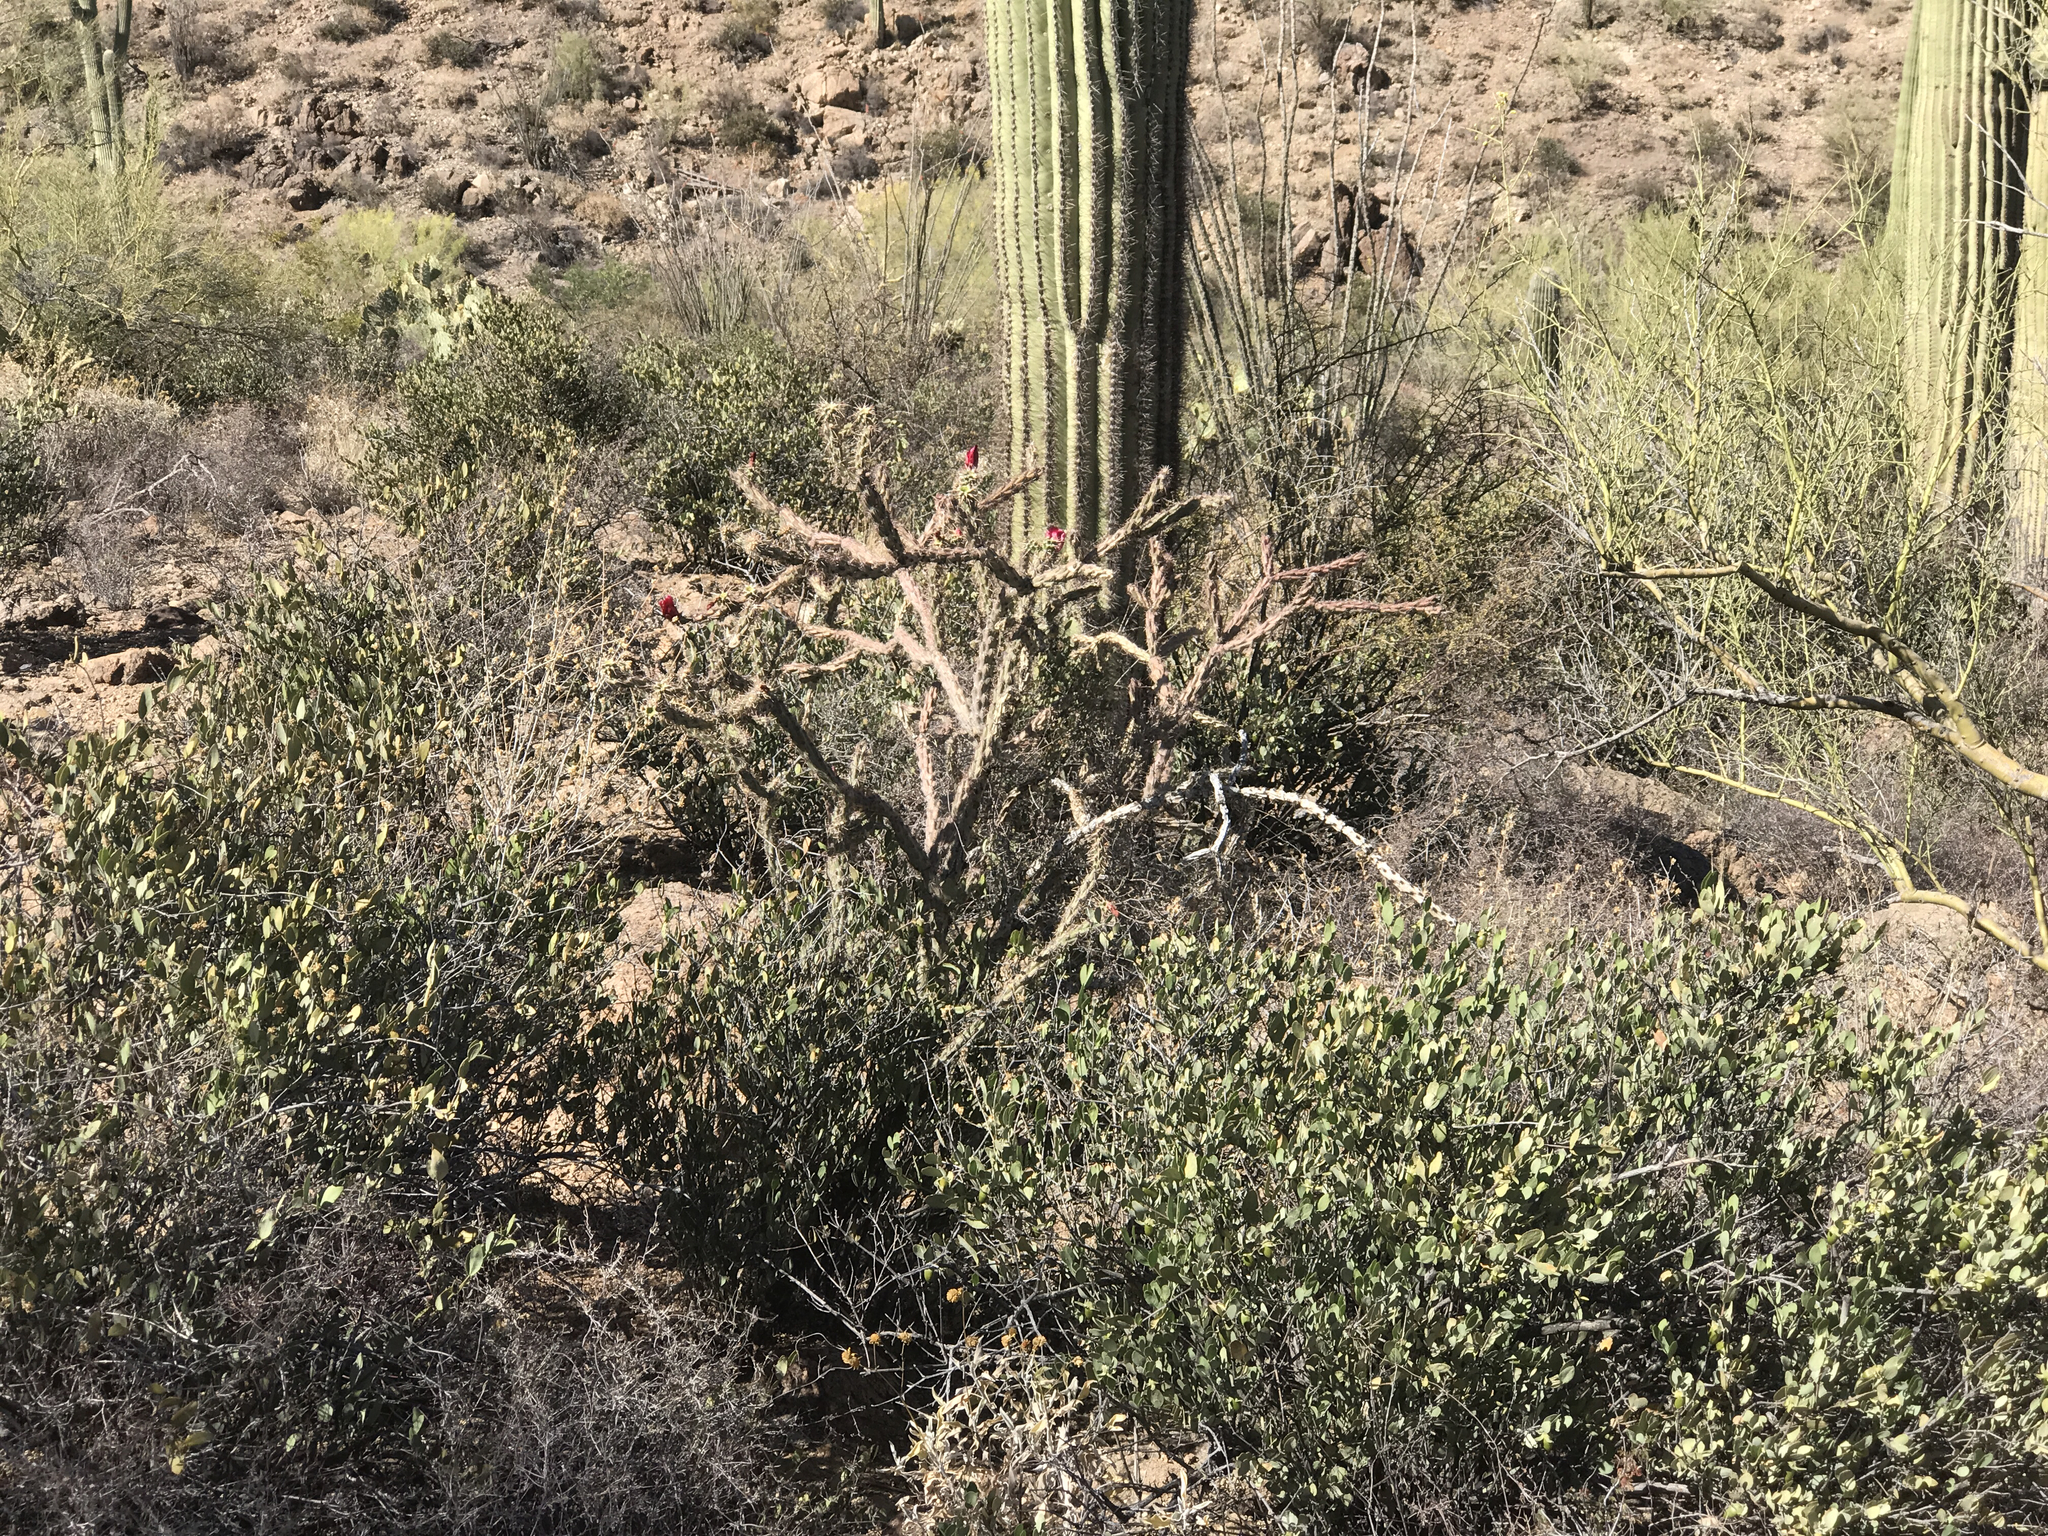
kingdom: Plantae
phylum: Tracheophyta
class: Magnoliopsida
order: Caryophyllales
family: Simmondsiaceae
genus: Simmondsia
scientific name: Simmondsia chinensis
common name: Jojoba
